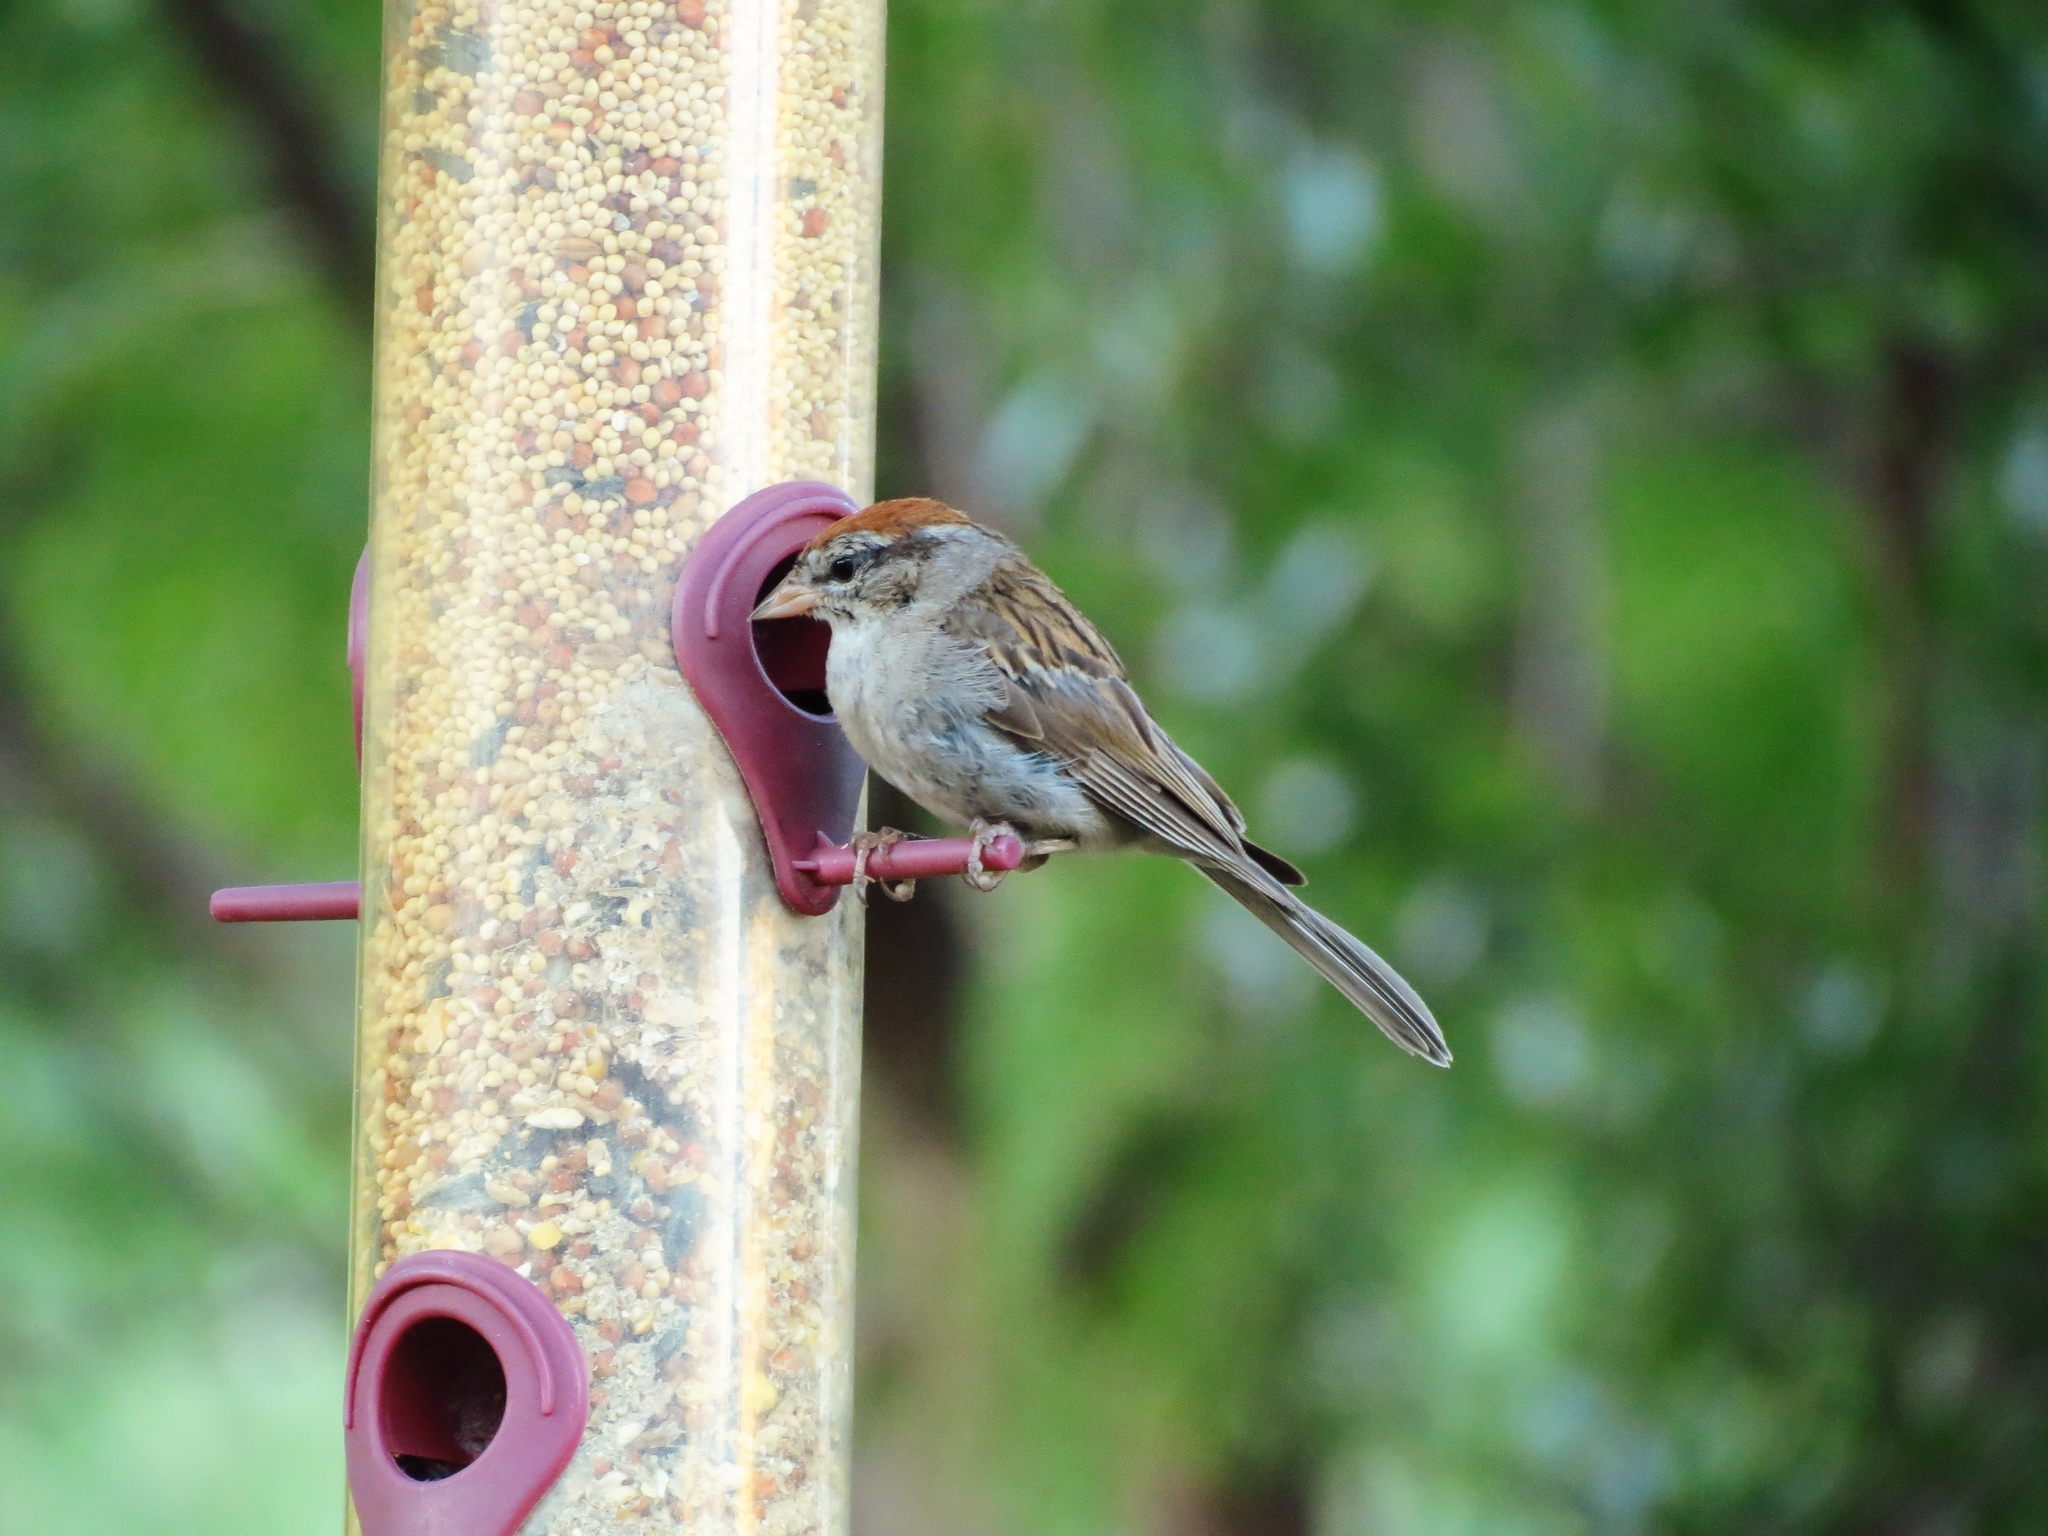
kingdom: Animalia
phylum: Chordata
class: Aves
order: Passeriformes
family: Passerellidae
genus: Spizella
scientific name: Spizella passerina
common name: Chipping sparrow
